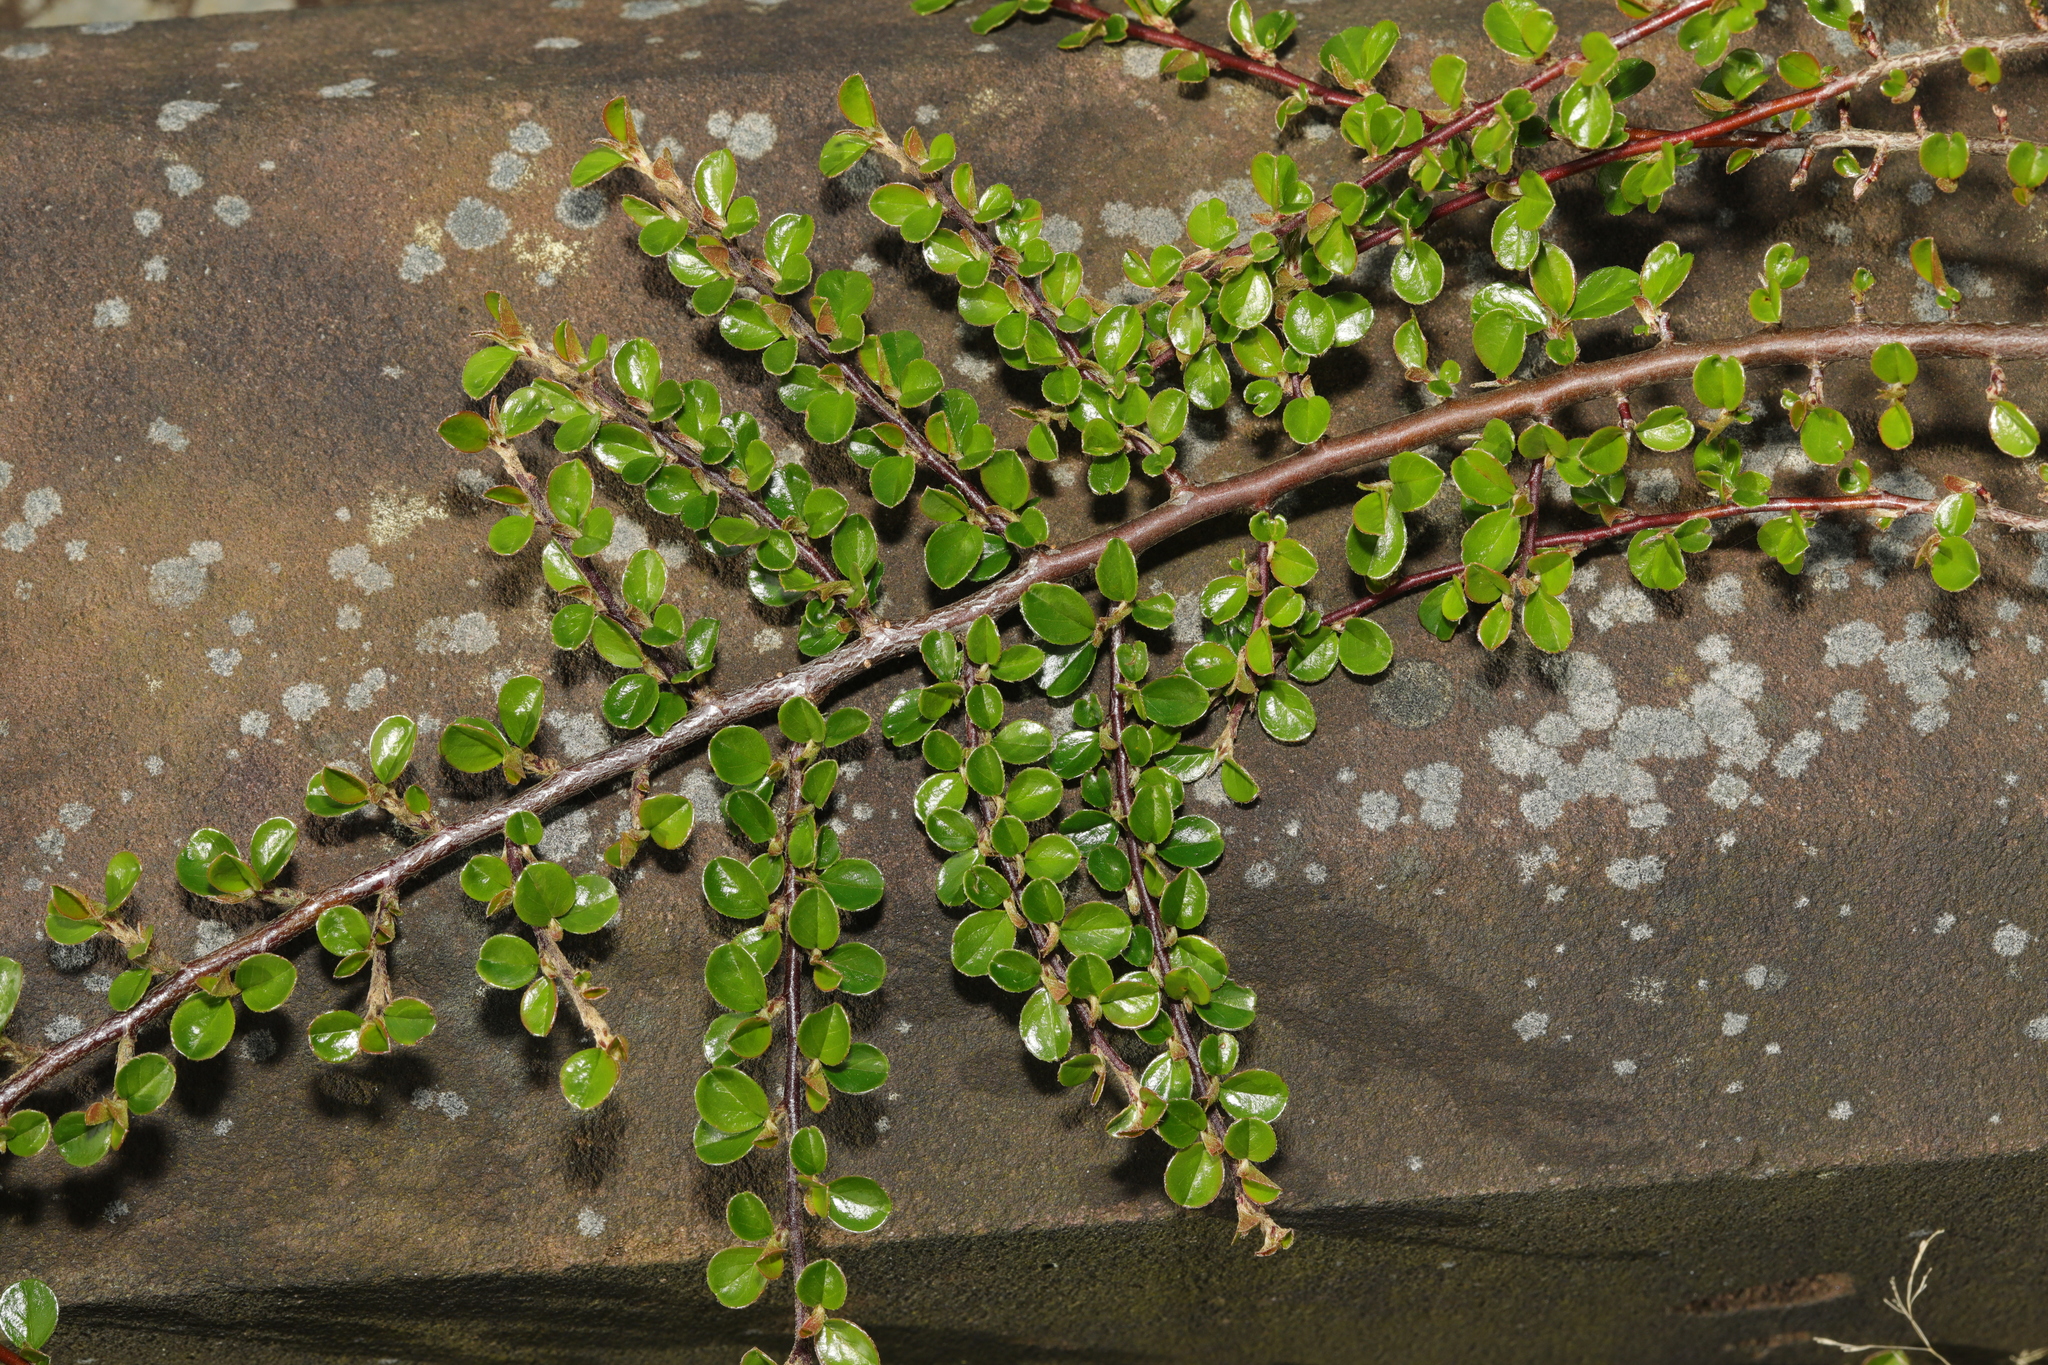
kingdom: Plantae
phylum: Tracheophyta
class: Magnoliopsida
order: Rosales
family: Rosaceae
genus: Cotoneaster
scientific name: Cotoneaster hjelmqvistii
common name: Hjelmqvist's cotoneaster
